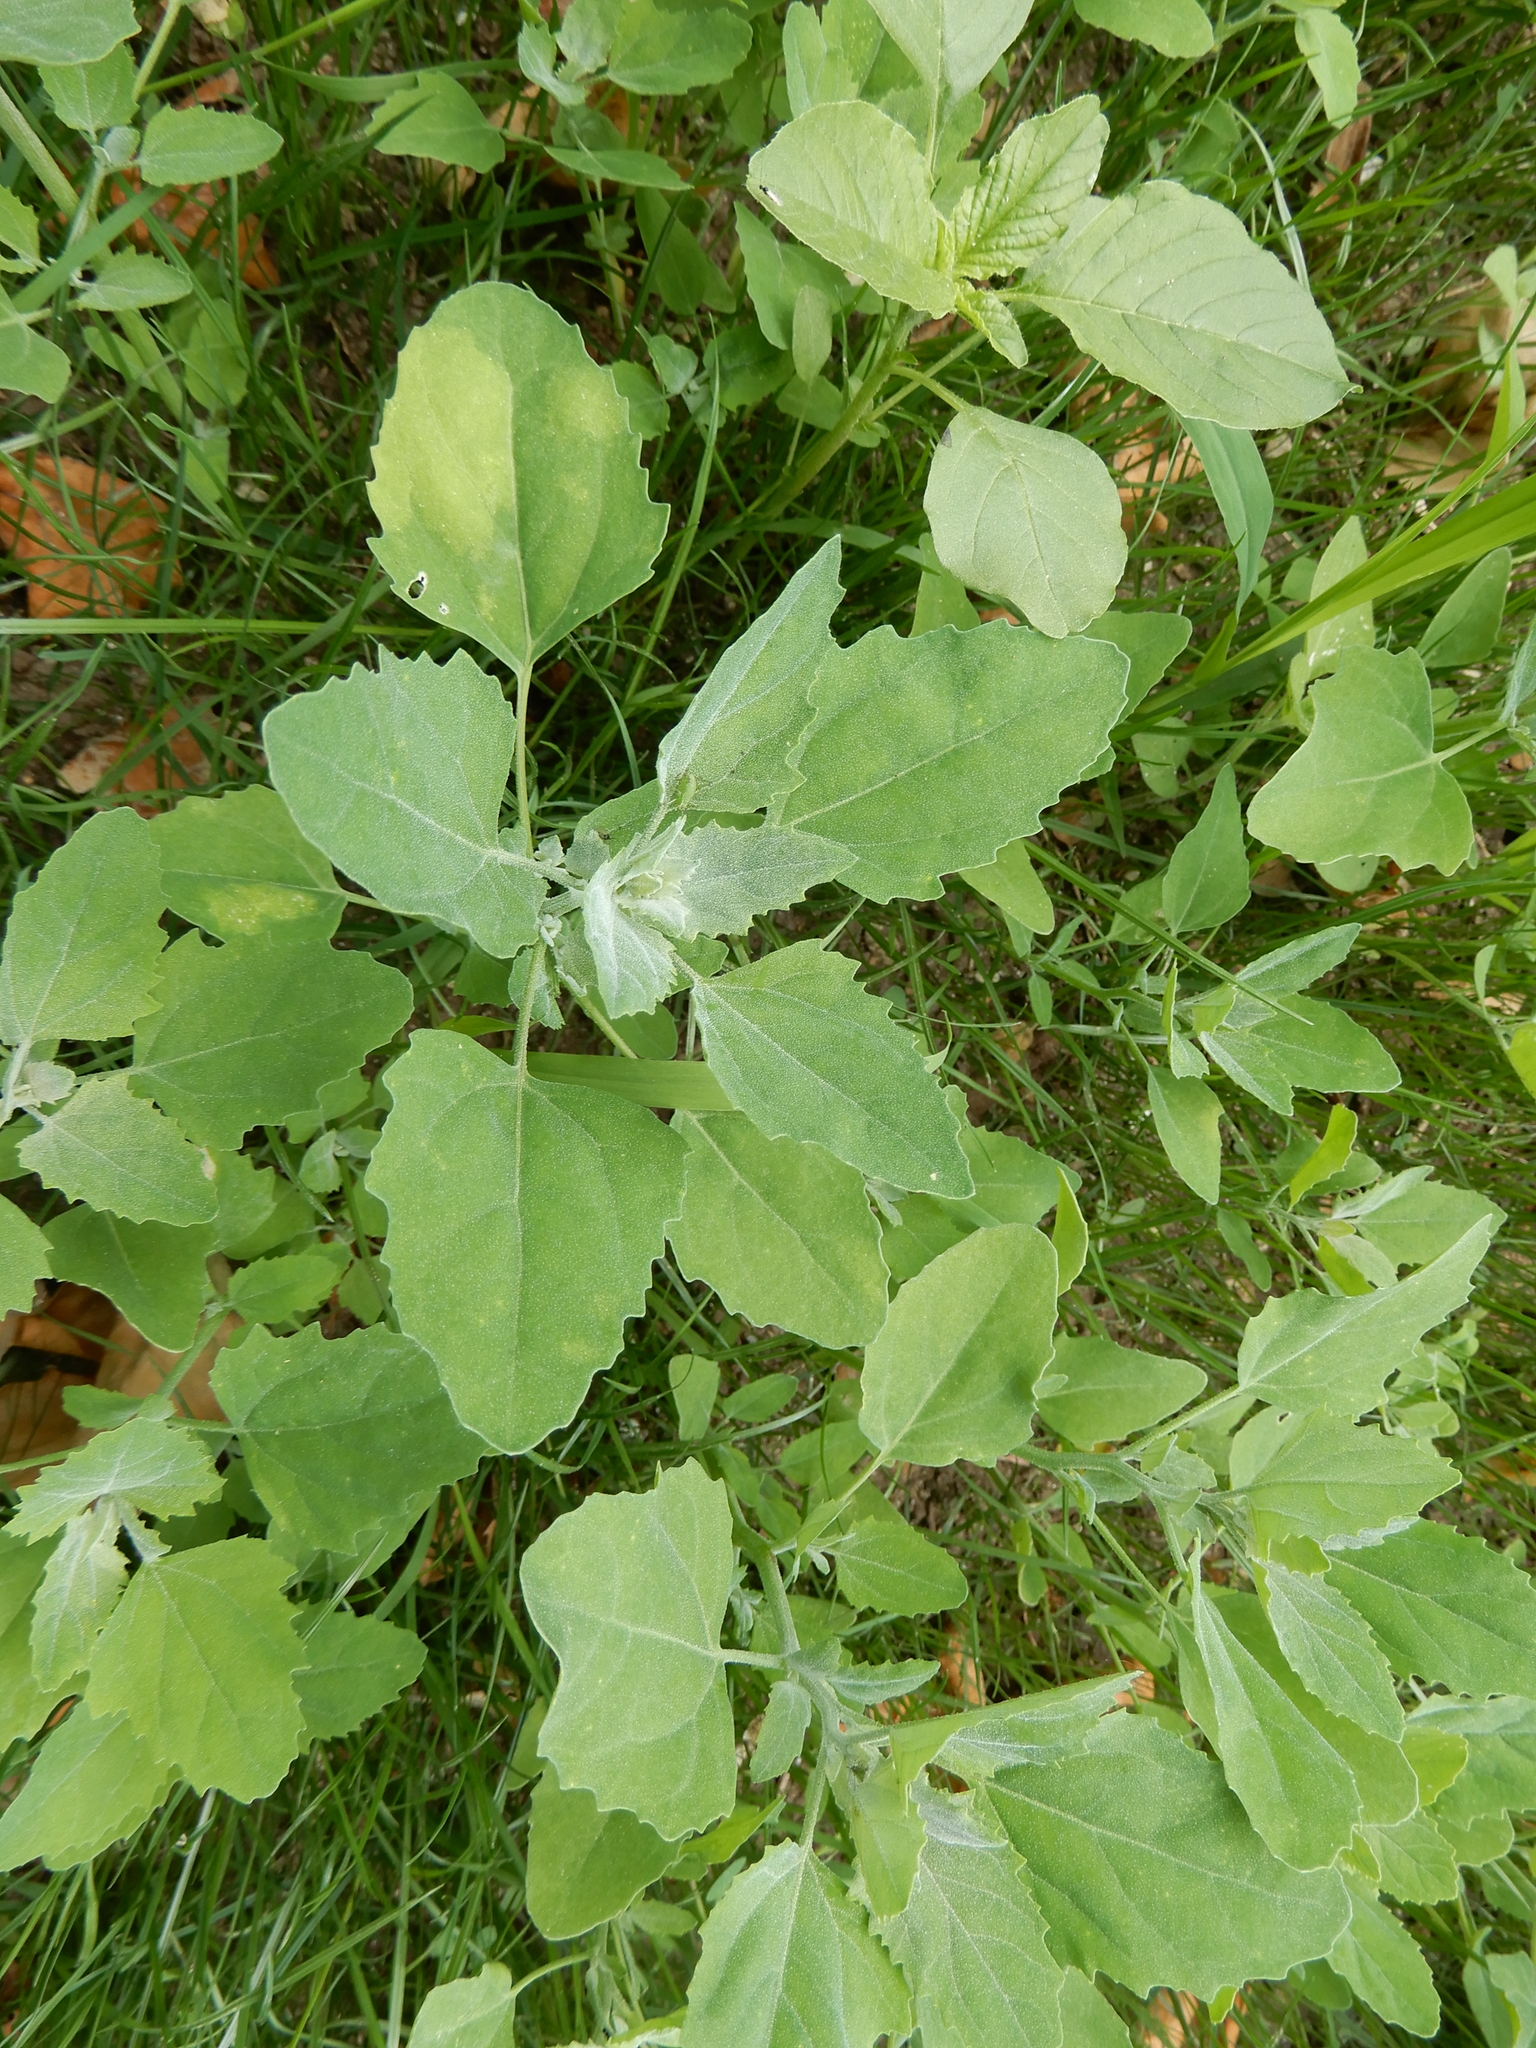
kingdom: Plantae
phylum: Tracheophyta
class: Magnoliopsida
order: Caryophyllales
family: Amaranthaceae
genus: Chenopodium
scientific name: Chenopodium album
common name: Fat-hen
